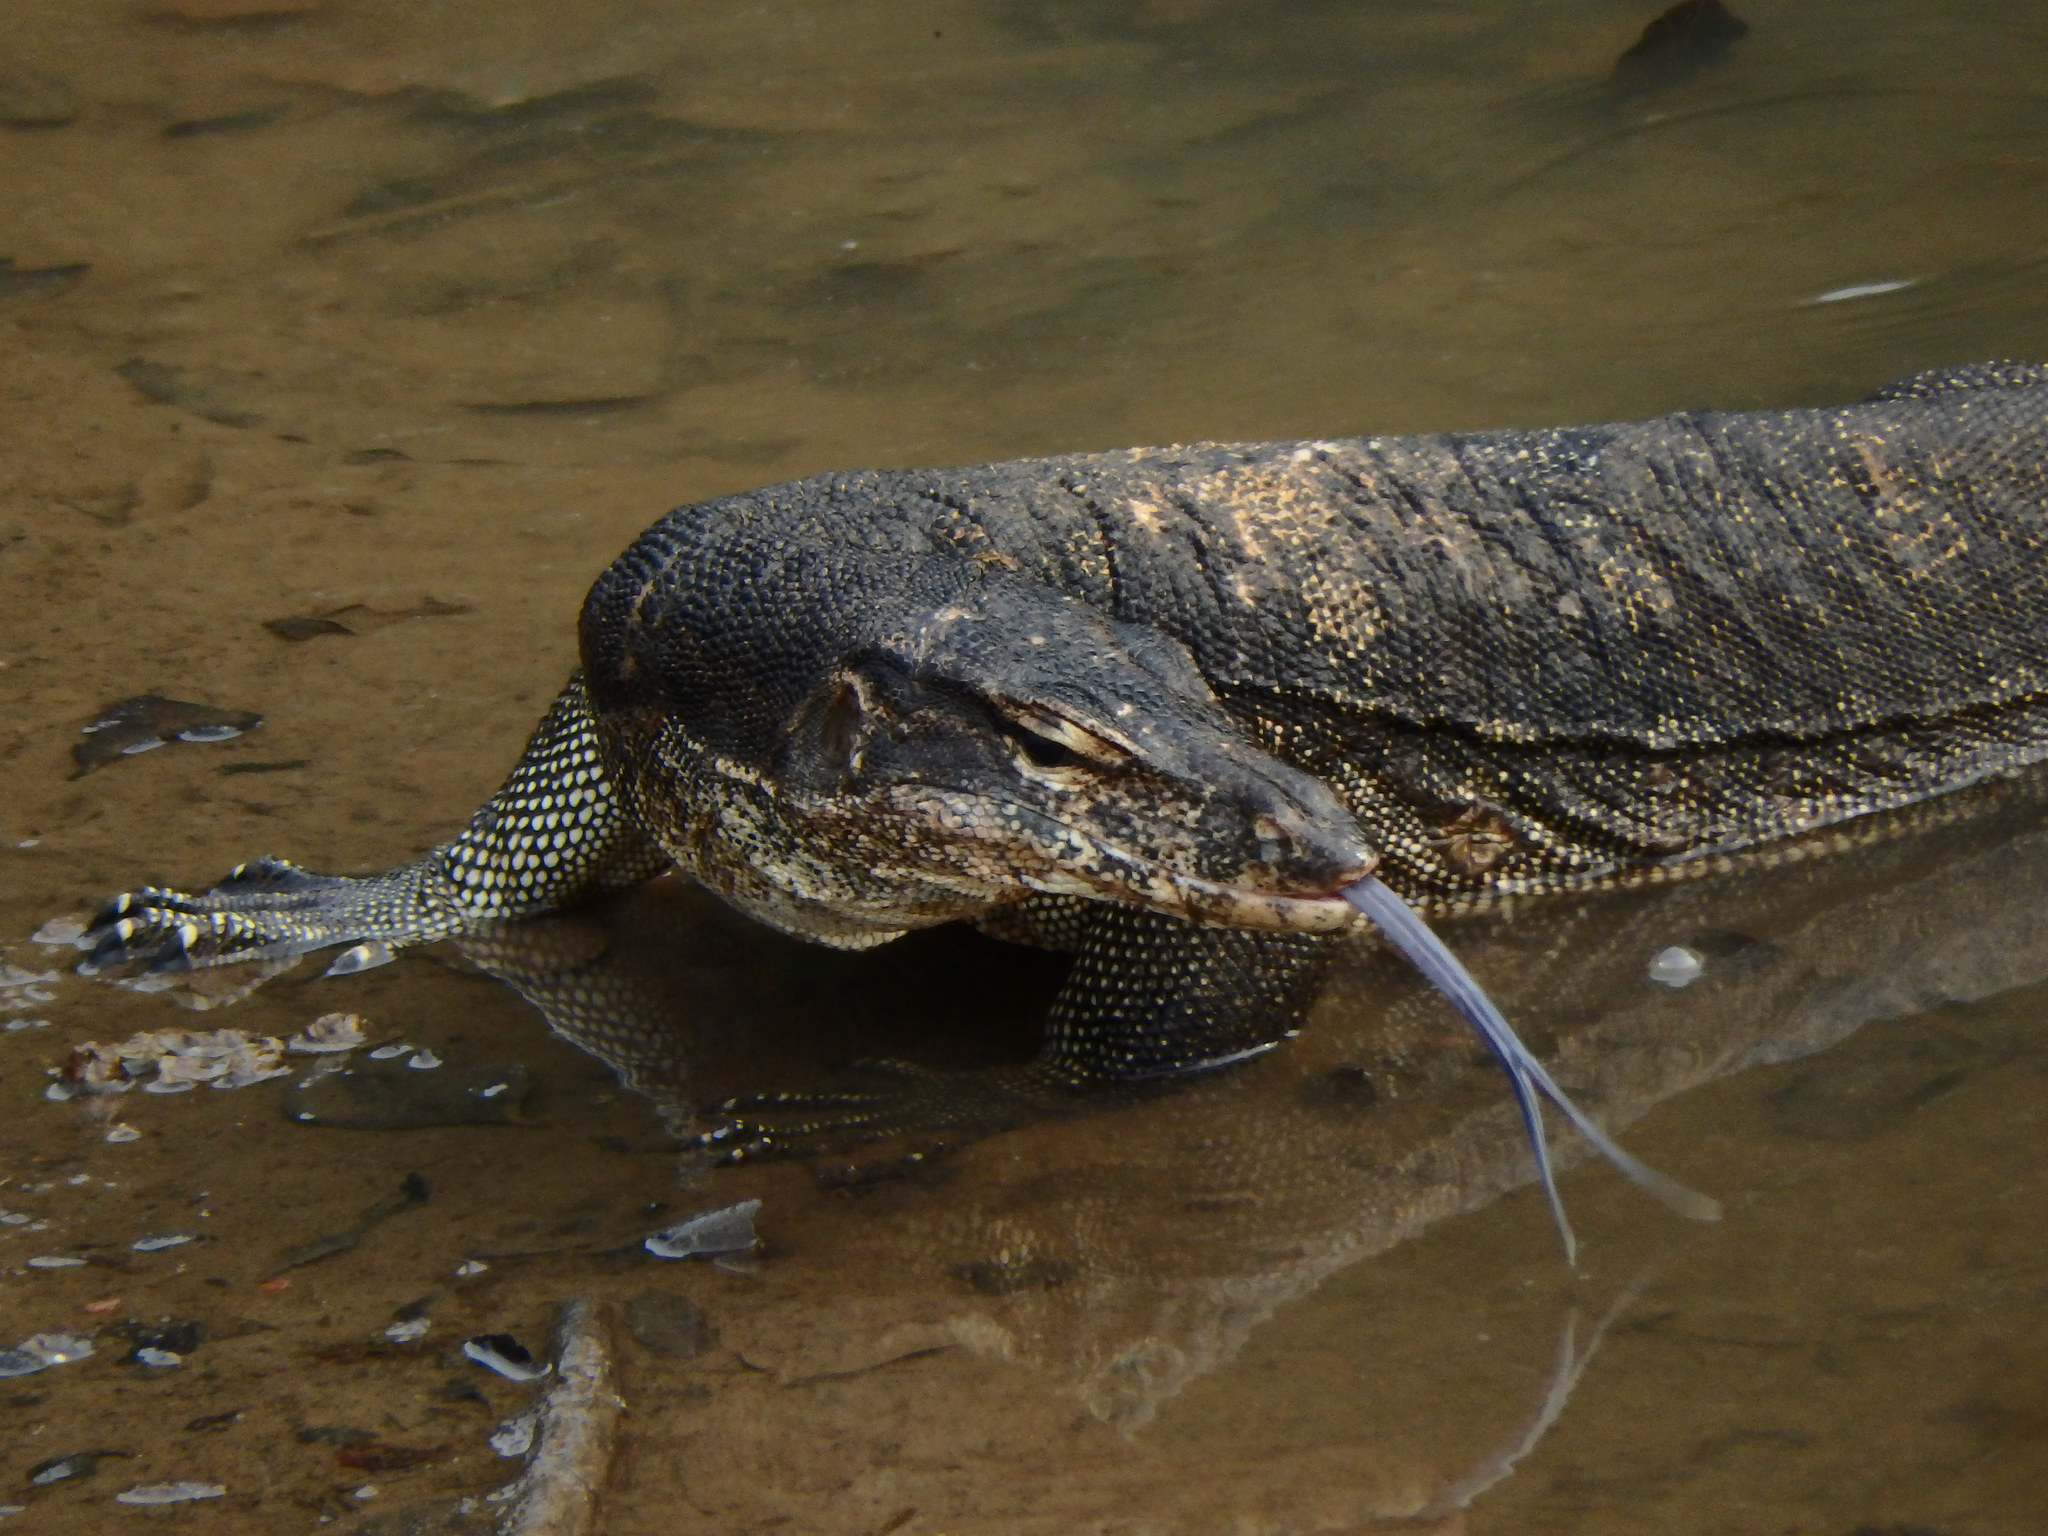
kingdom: Animalia
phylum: Chordata
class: Squamata
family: Varanidae
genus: Varanus
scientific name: Varanus salvator
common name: Common water monitor
